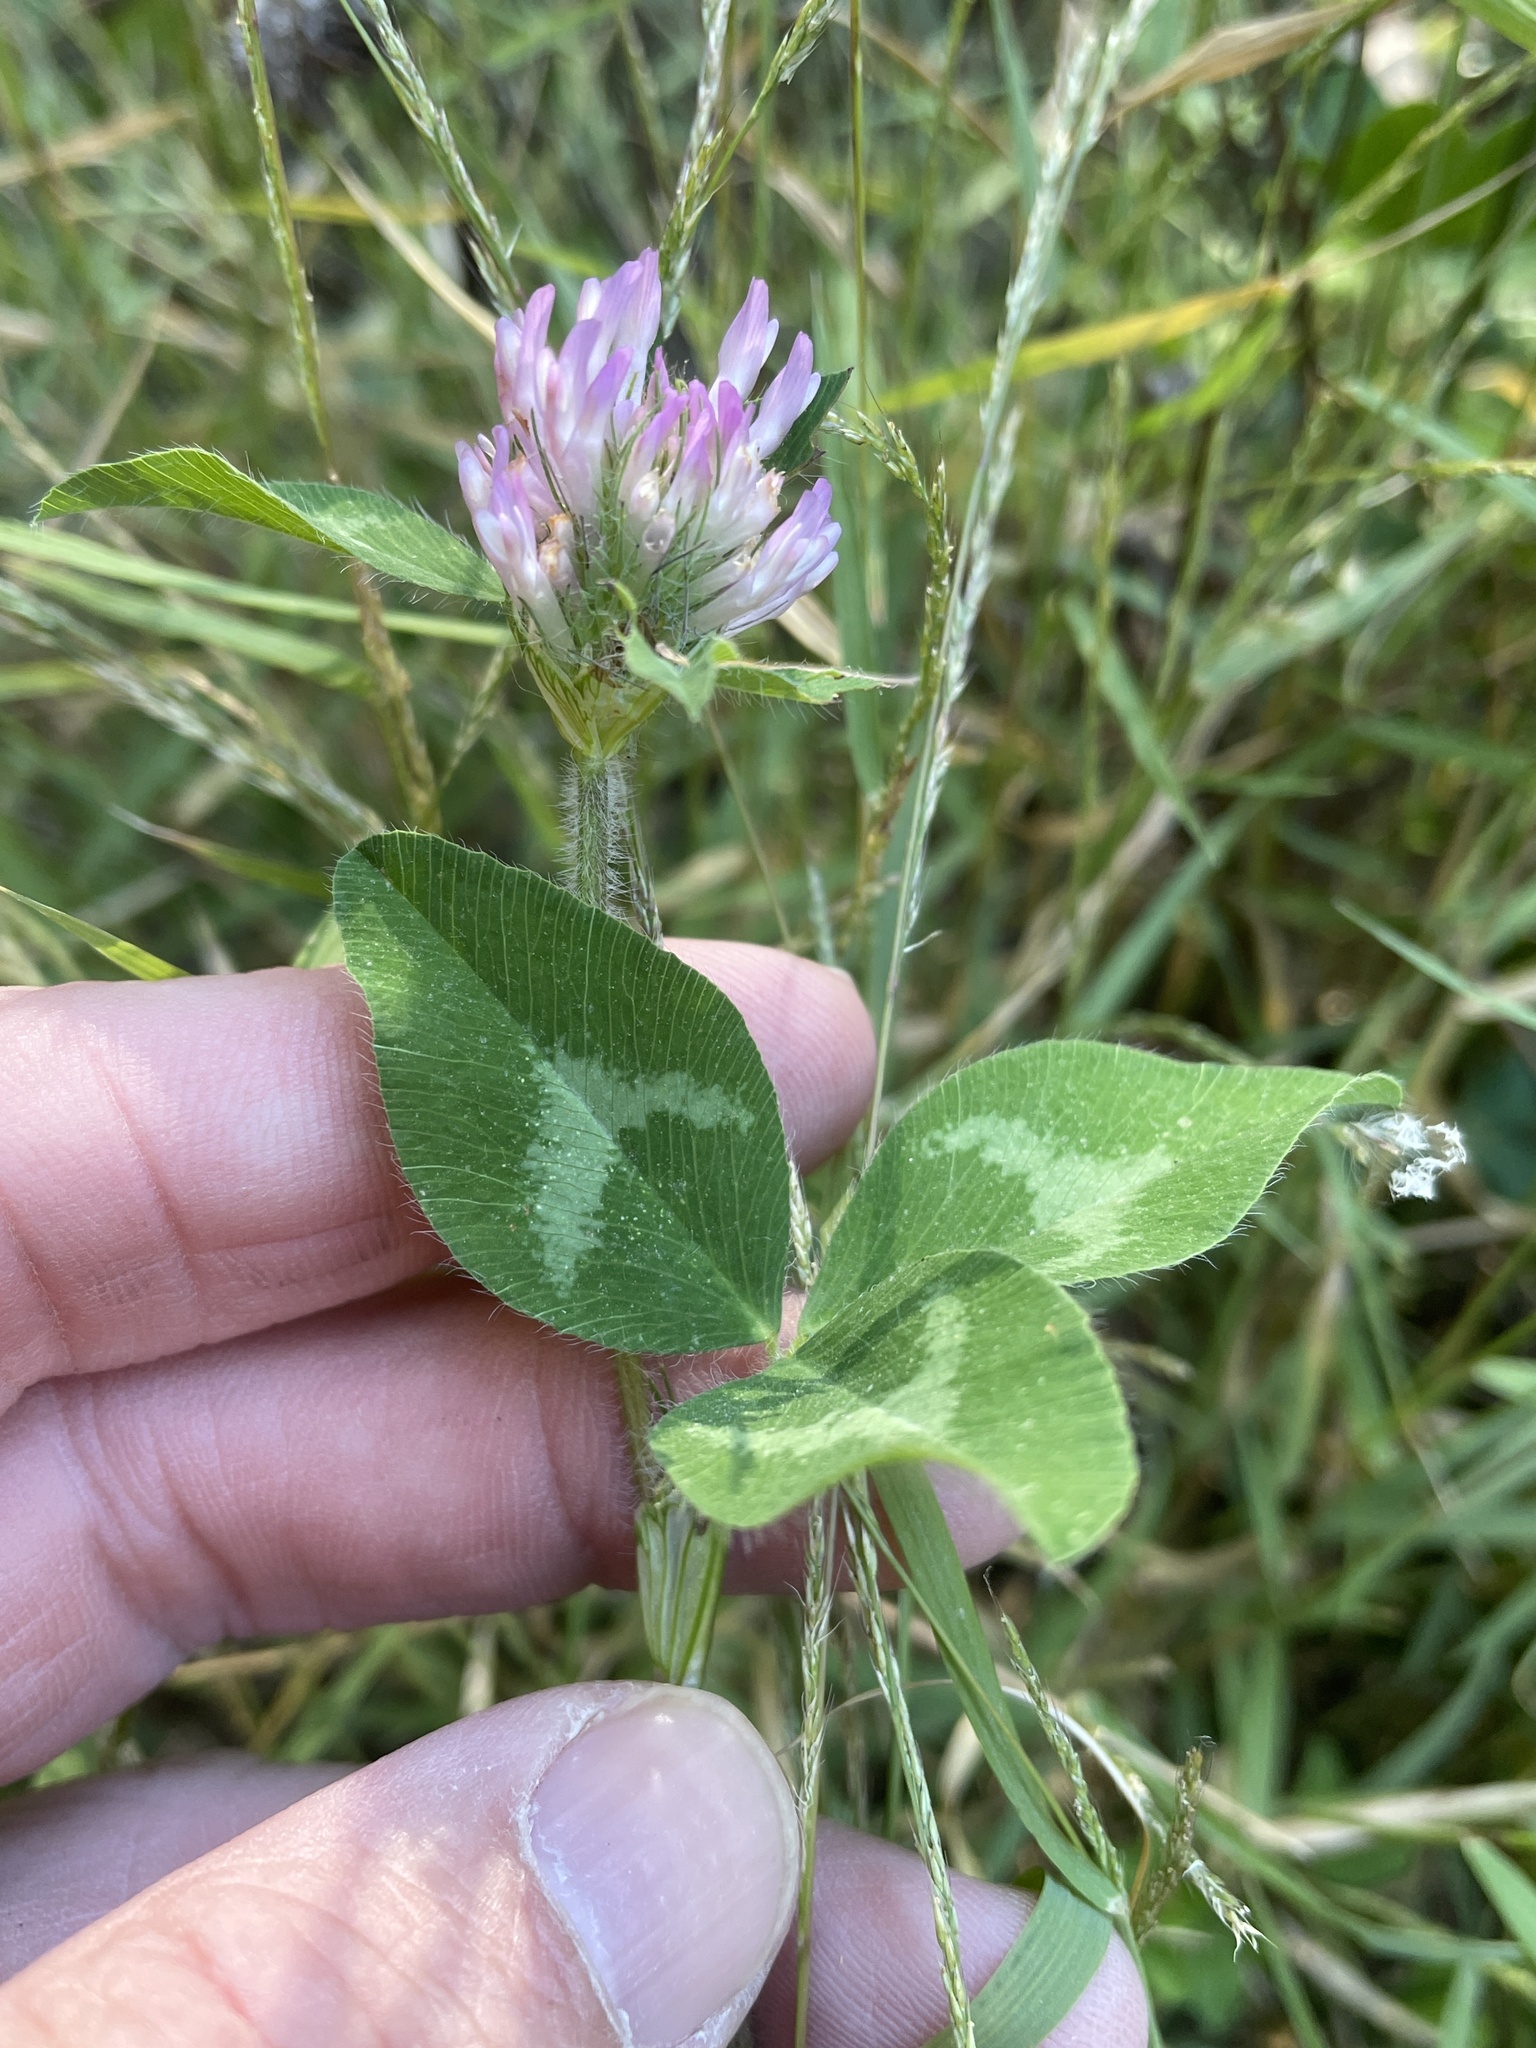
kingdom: Plantae
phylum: Tracheophyta
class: Magnoliopsida
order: Fabales
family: Fabaceae
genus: Trifolium
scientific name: Trifolium pratense
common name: Red clover
